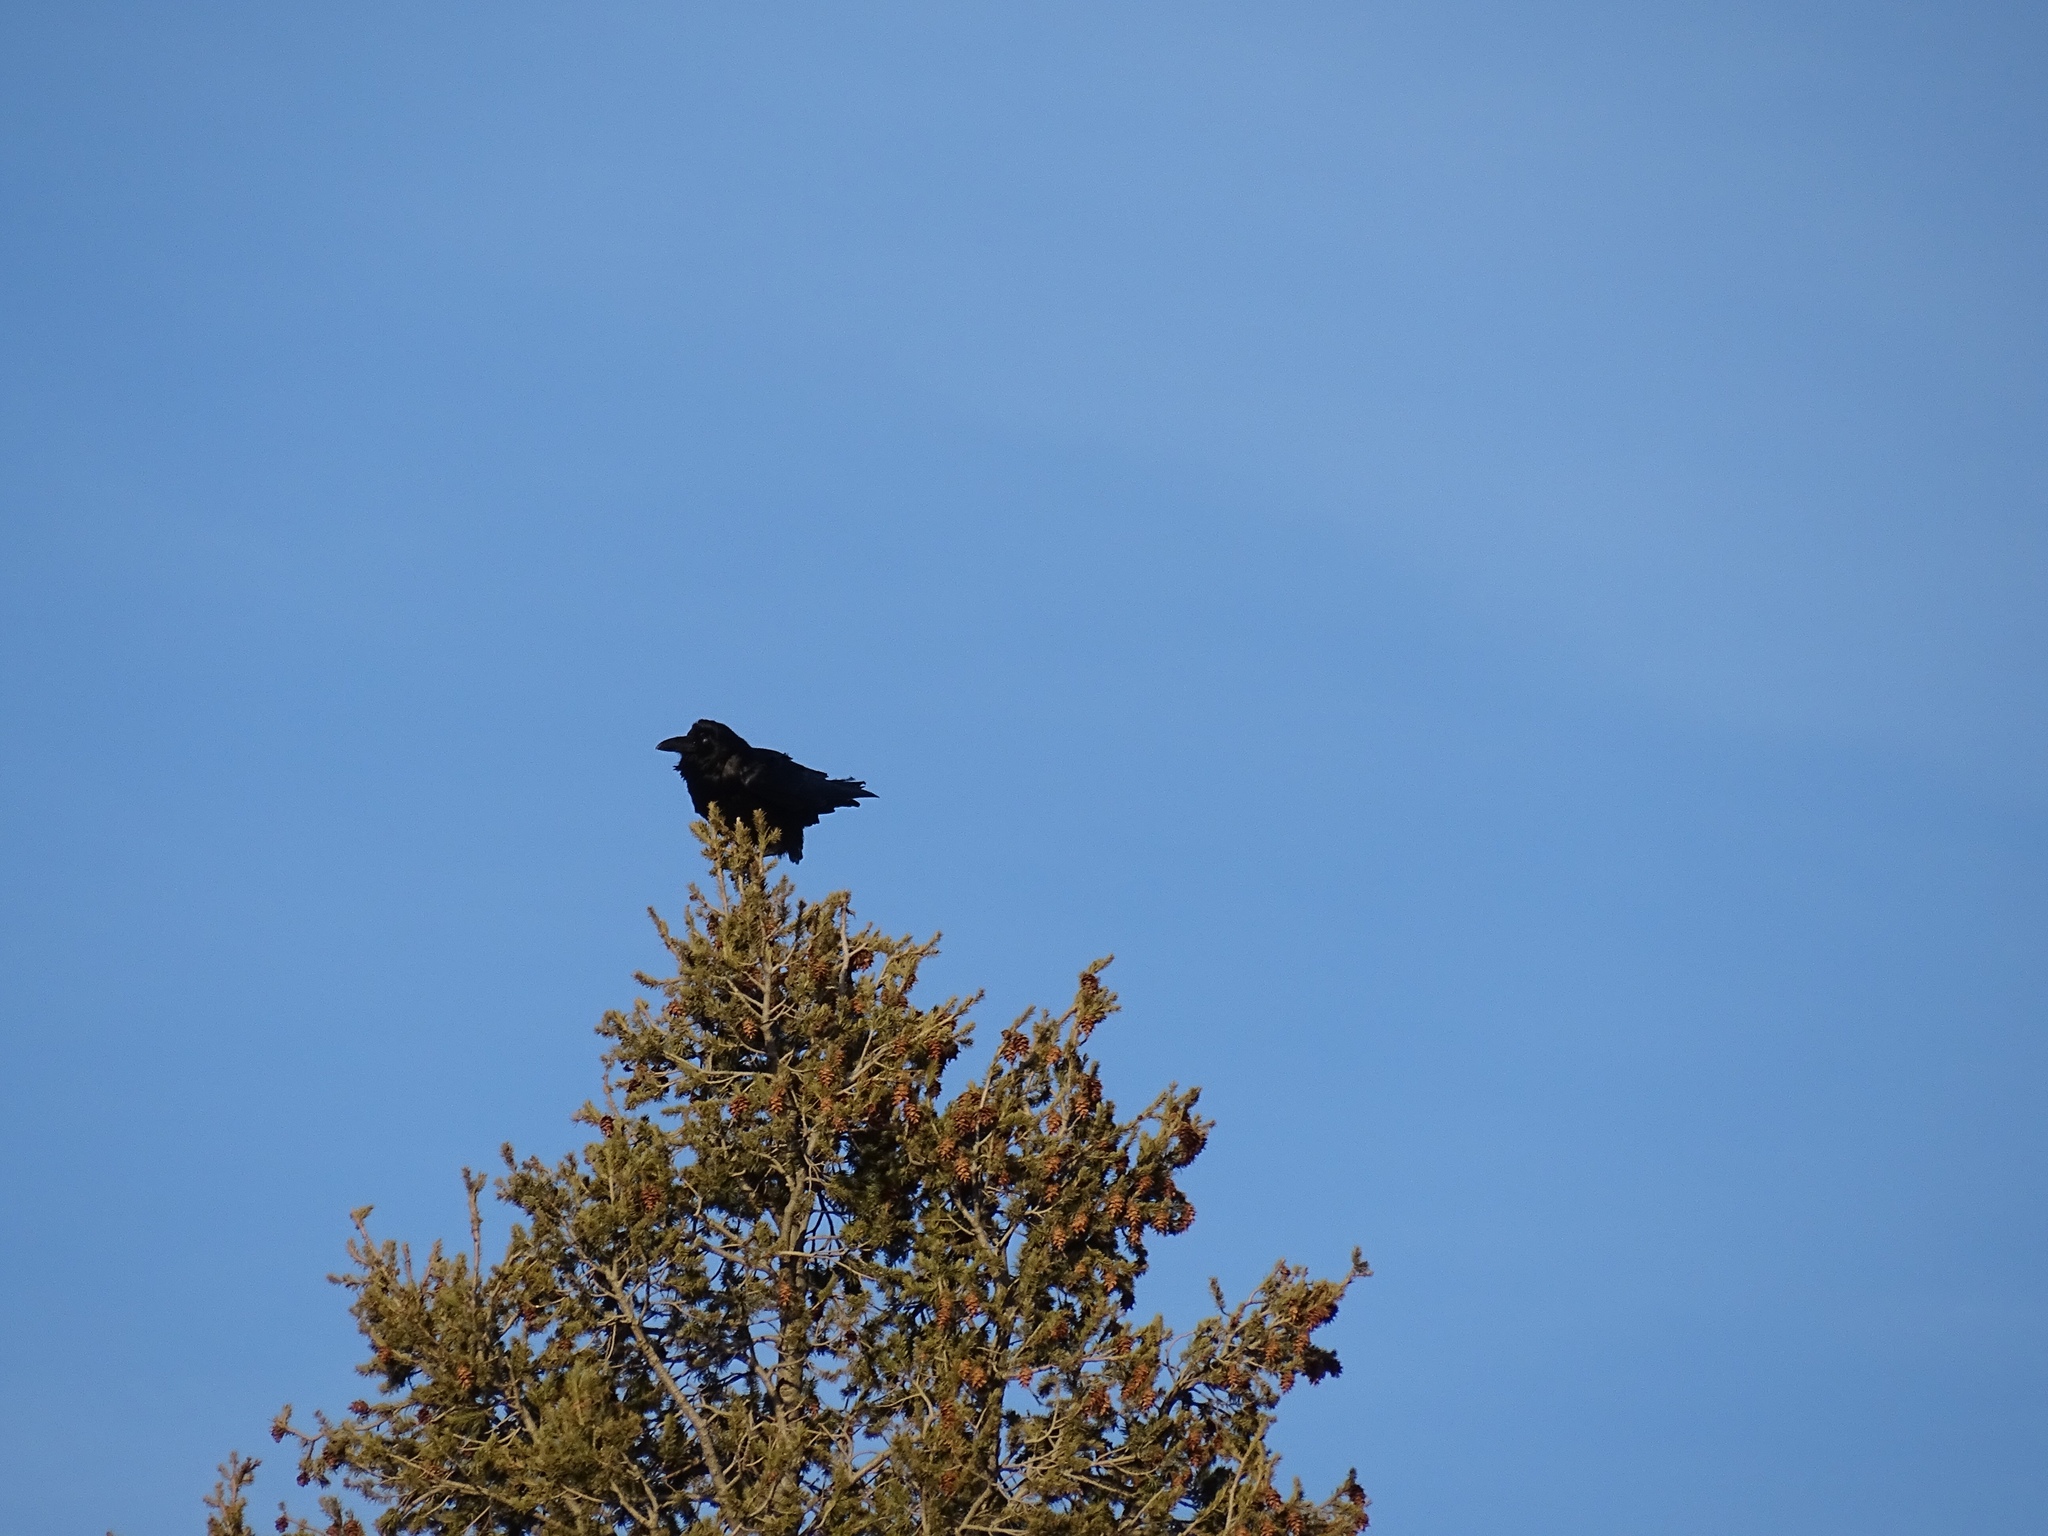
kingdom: Animalia
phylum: Chordata
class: Aves
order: Passeriformes
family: Corvidae
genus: Corvus
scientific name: Corvus corax
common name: Common raven
